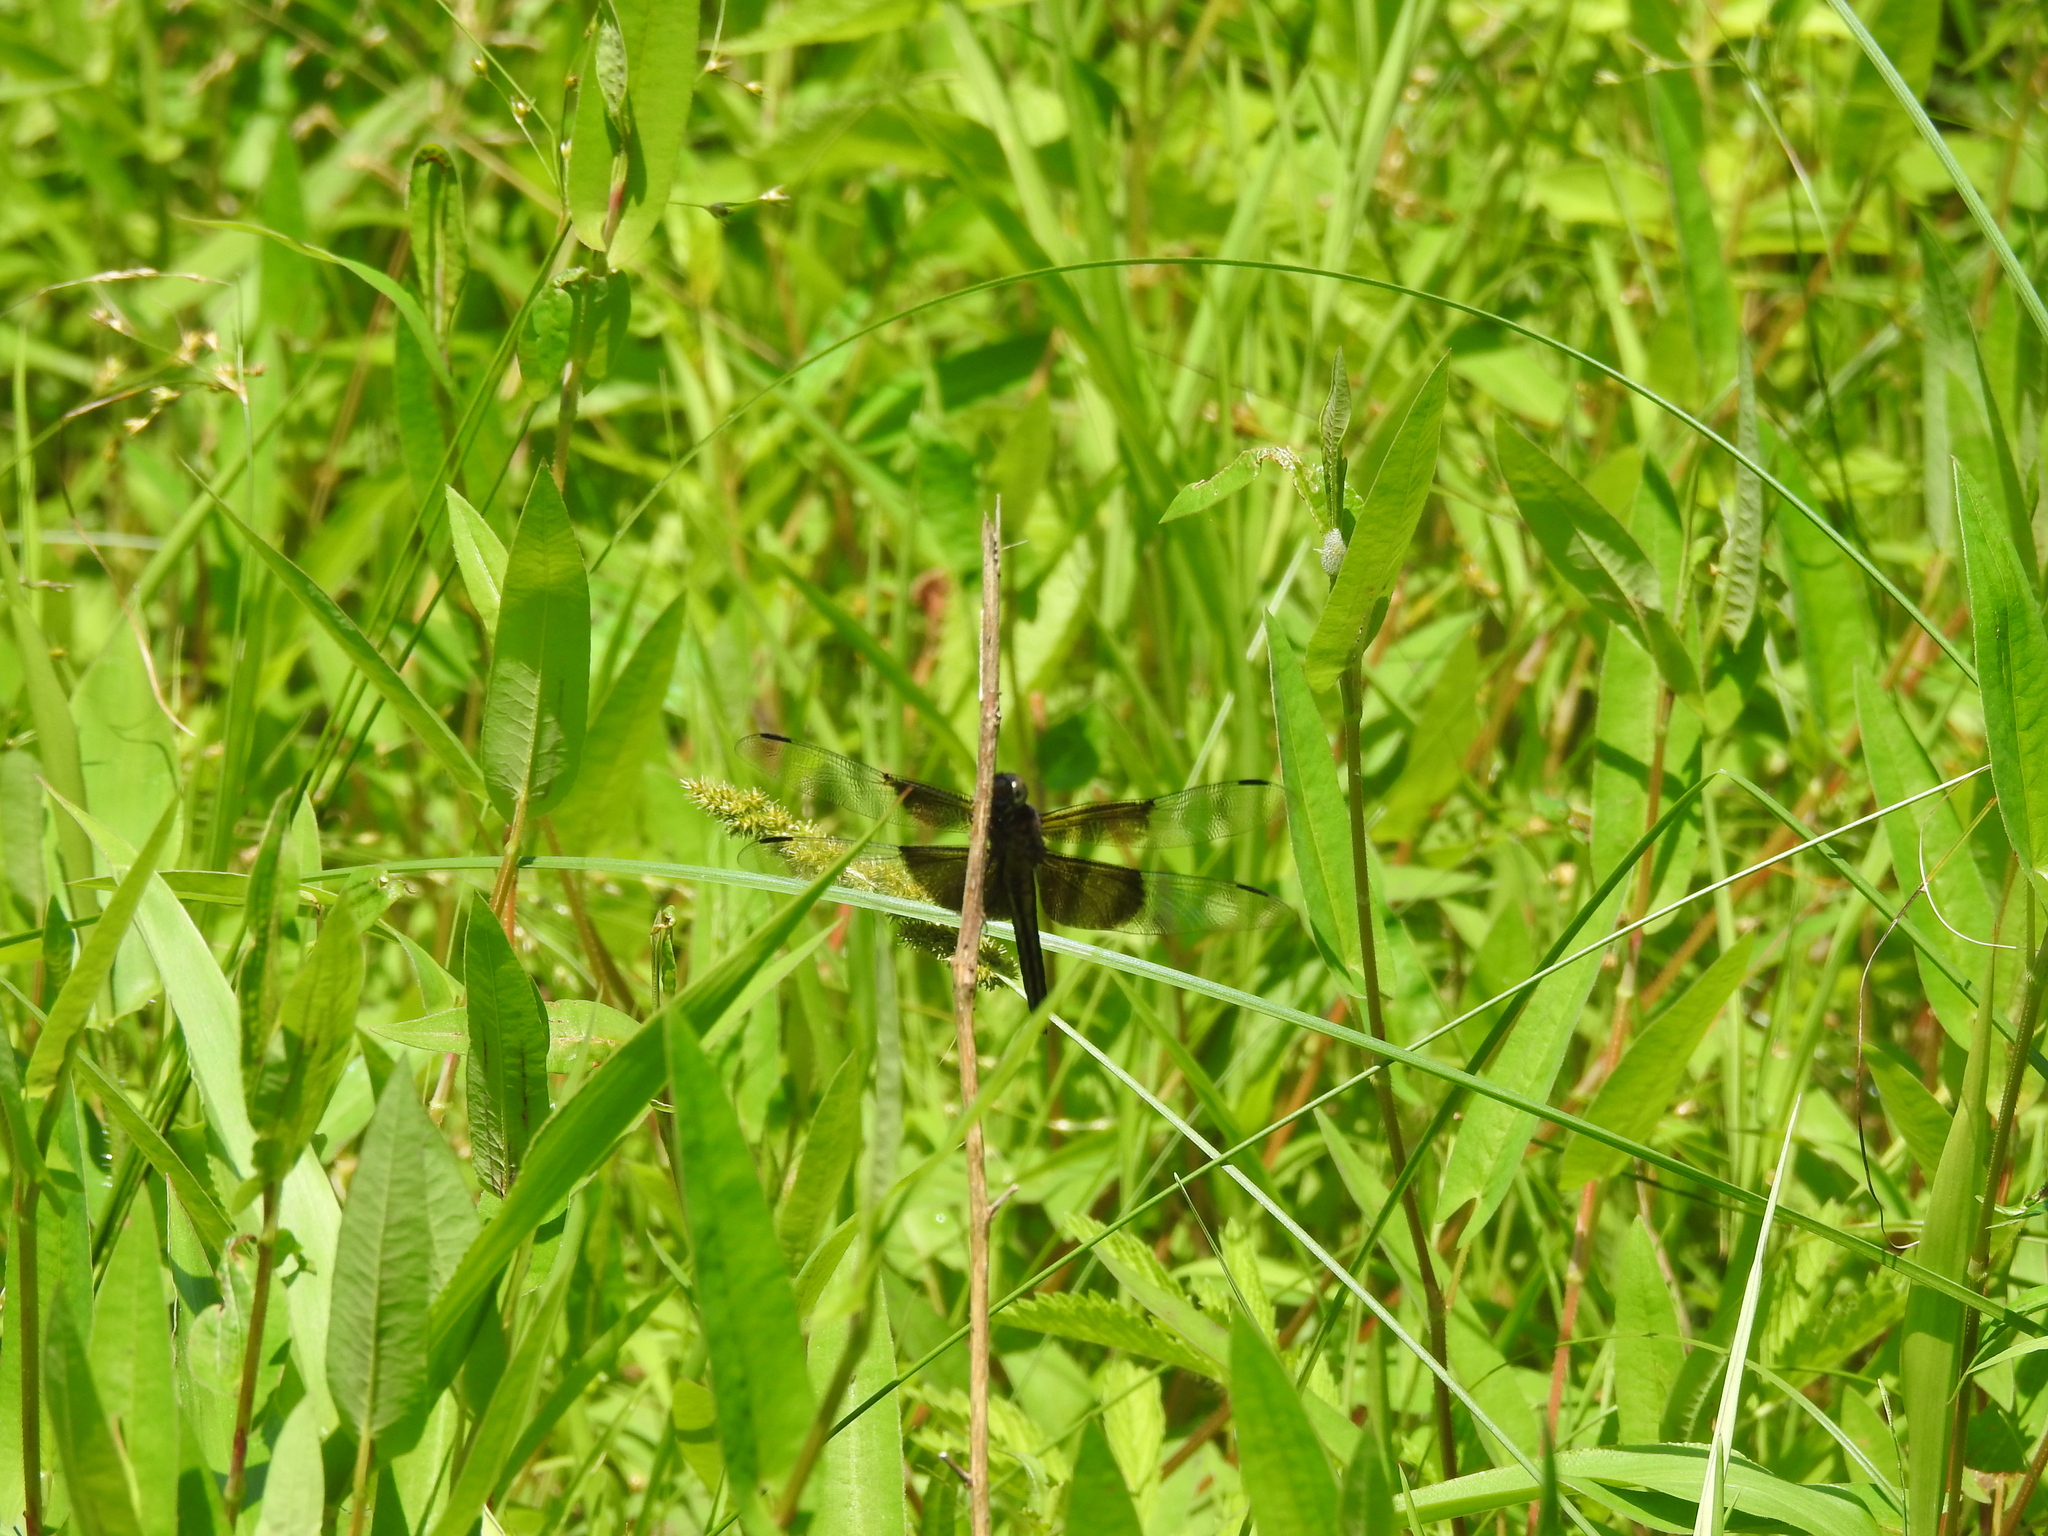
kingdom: Animalia
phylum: Arthropoda
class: Insecta
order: Odonata
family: Libellulidae
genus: Libellula
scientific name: Libellula luctuosa
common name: Widow skimmer
